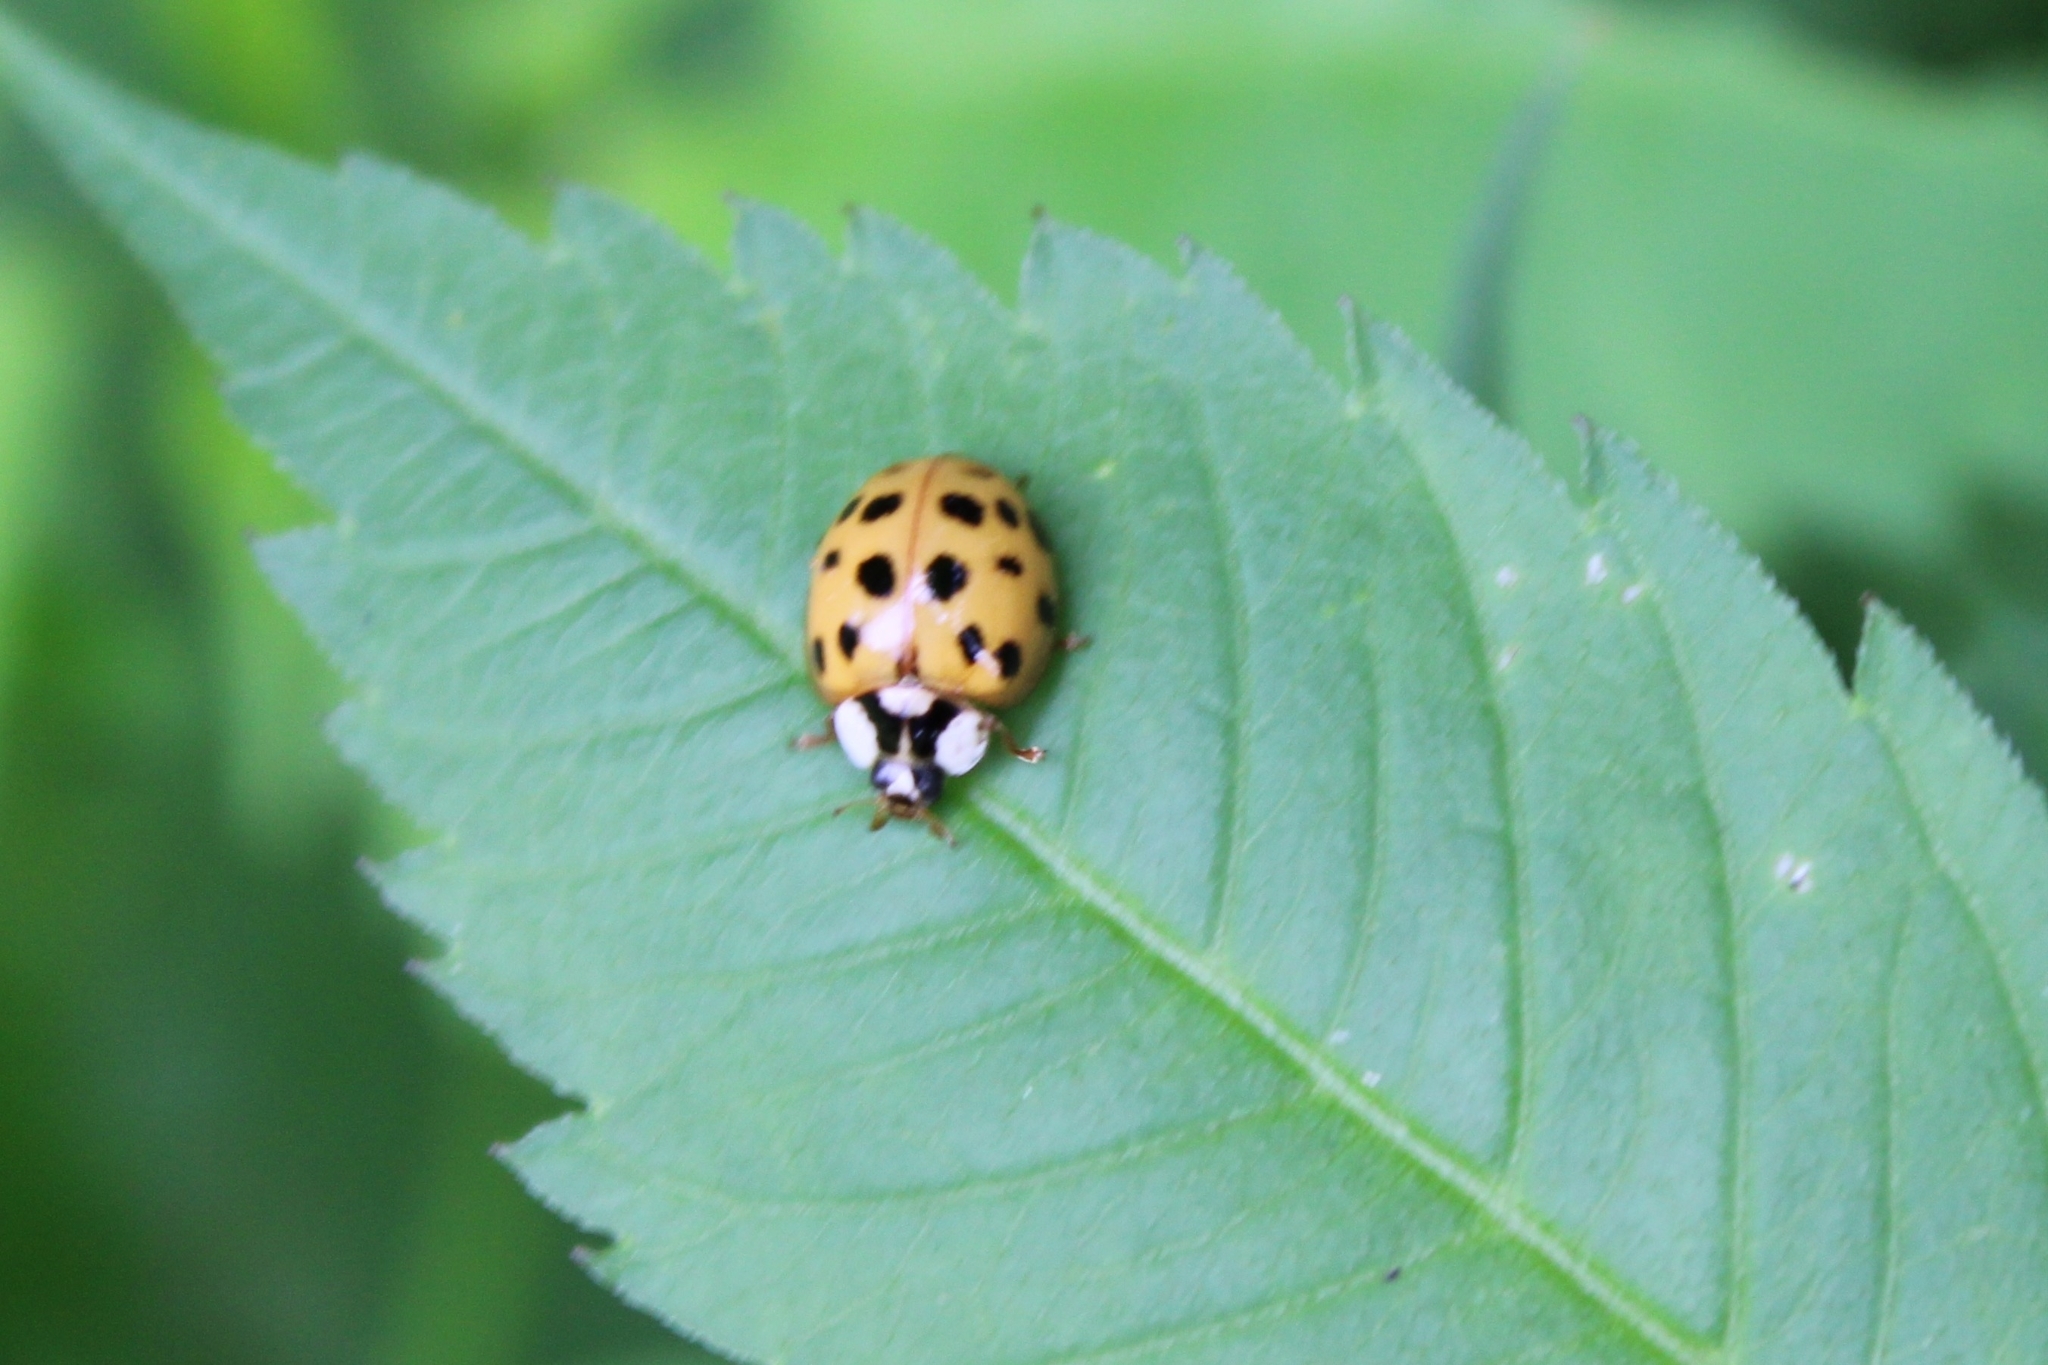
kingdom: Animalia
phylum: Arthropoda
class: Insecta
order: Coleoptera
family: Coccinellidae
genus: Harmonia
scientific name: Harmonia axyridis
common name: Harlequin ladybird
